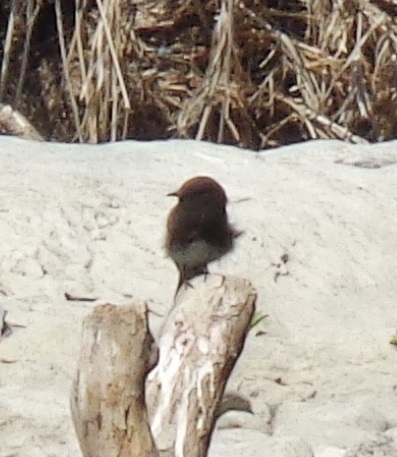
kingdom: Animalia
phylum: Chordata
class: Aves
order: Passeriformes
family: Tyrannidae
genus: Sayornis
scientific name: Sayornis nigricans
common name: Black phoebe
